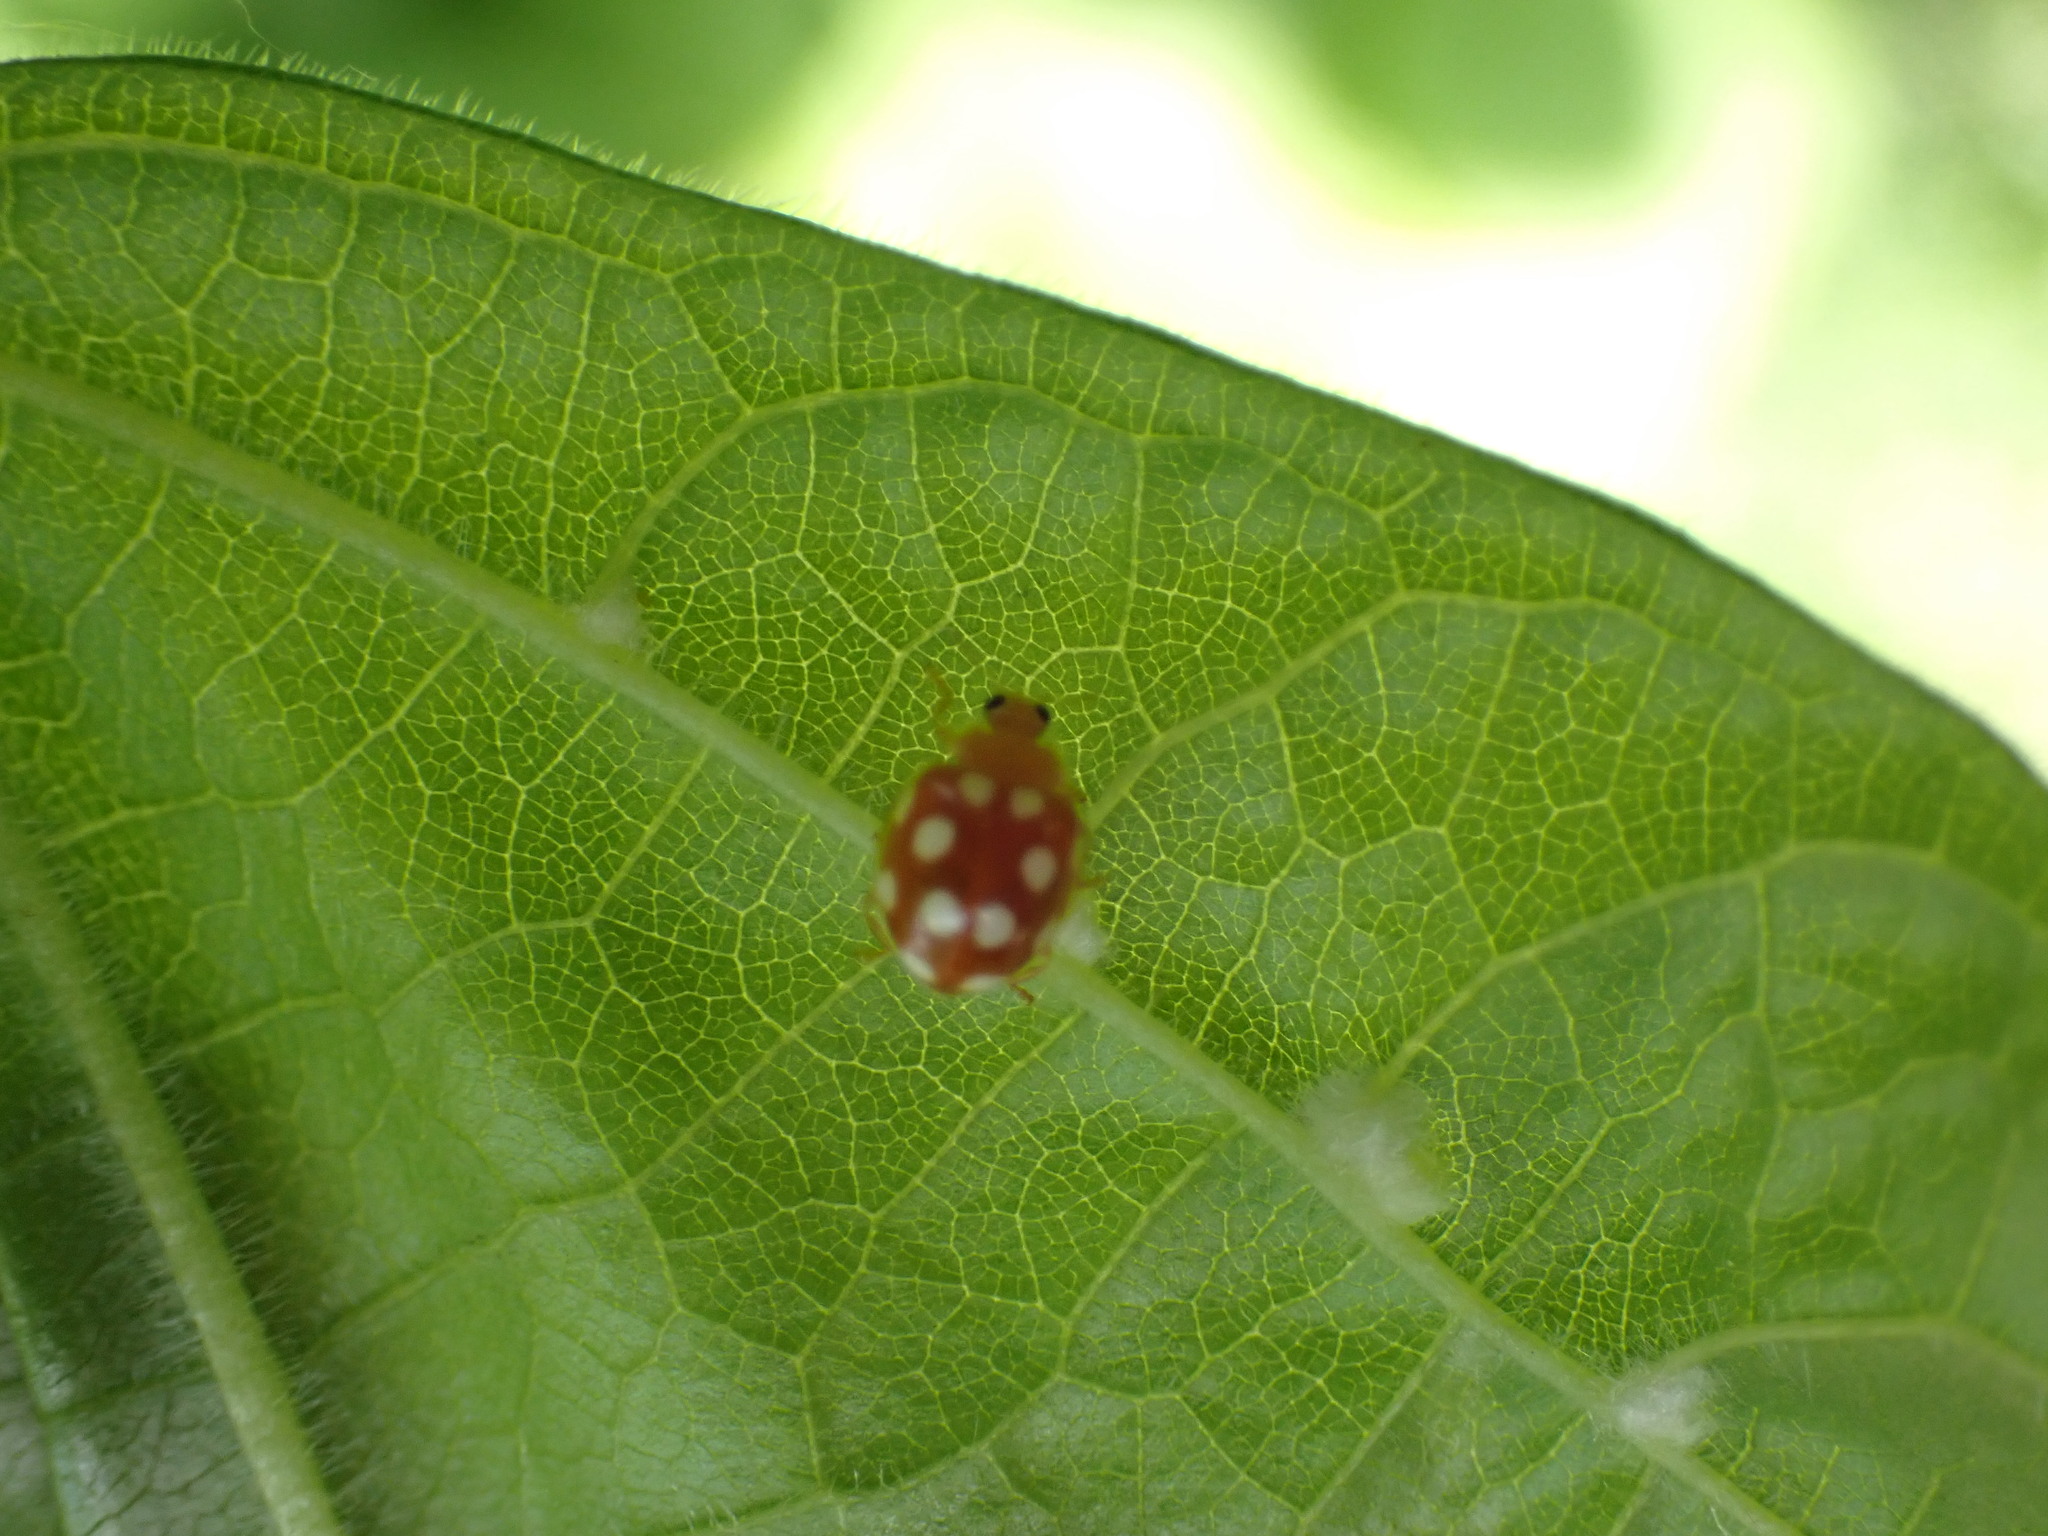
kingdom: Animalia
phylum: Arthropoda
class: Insecta
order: Coleoptera
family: Coccinellidae
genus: Vibidia
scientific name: Vibidia duodecimguttata
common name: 12-spot ladybird
